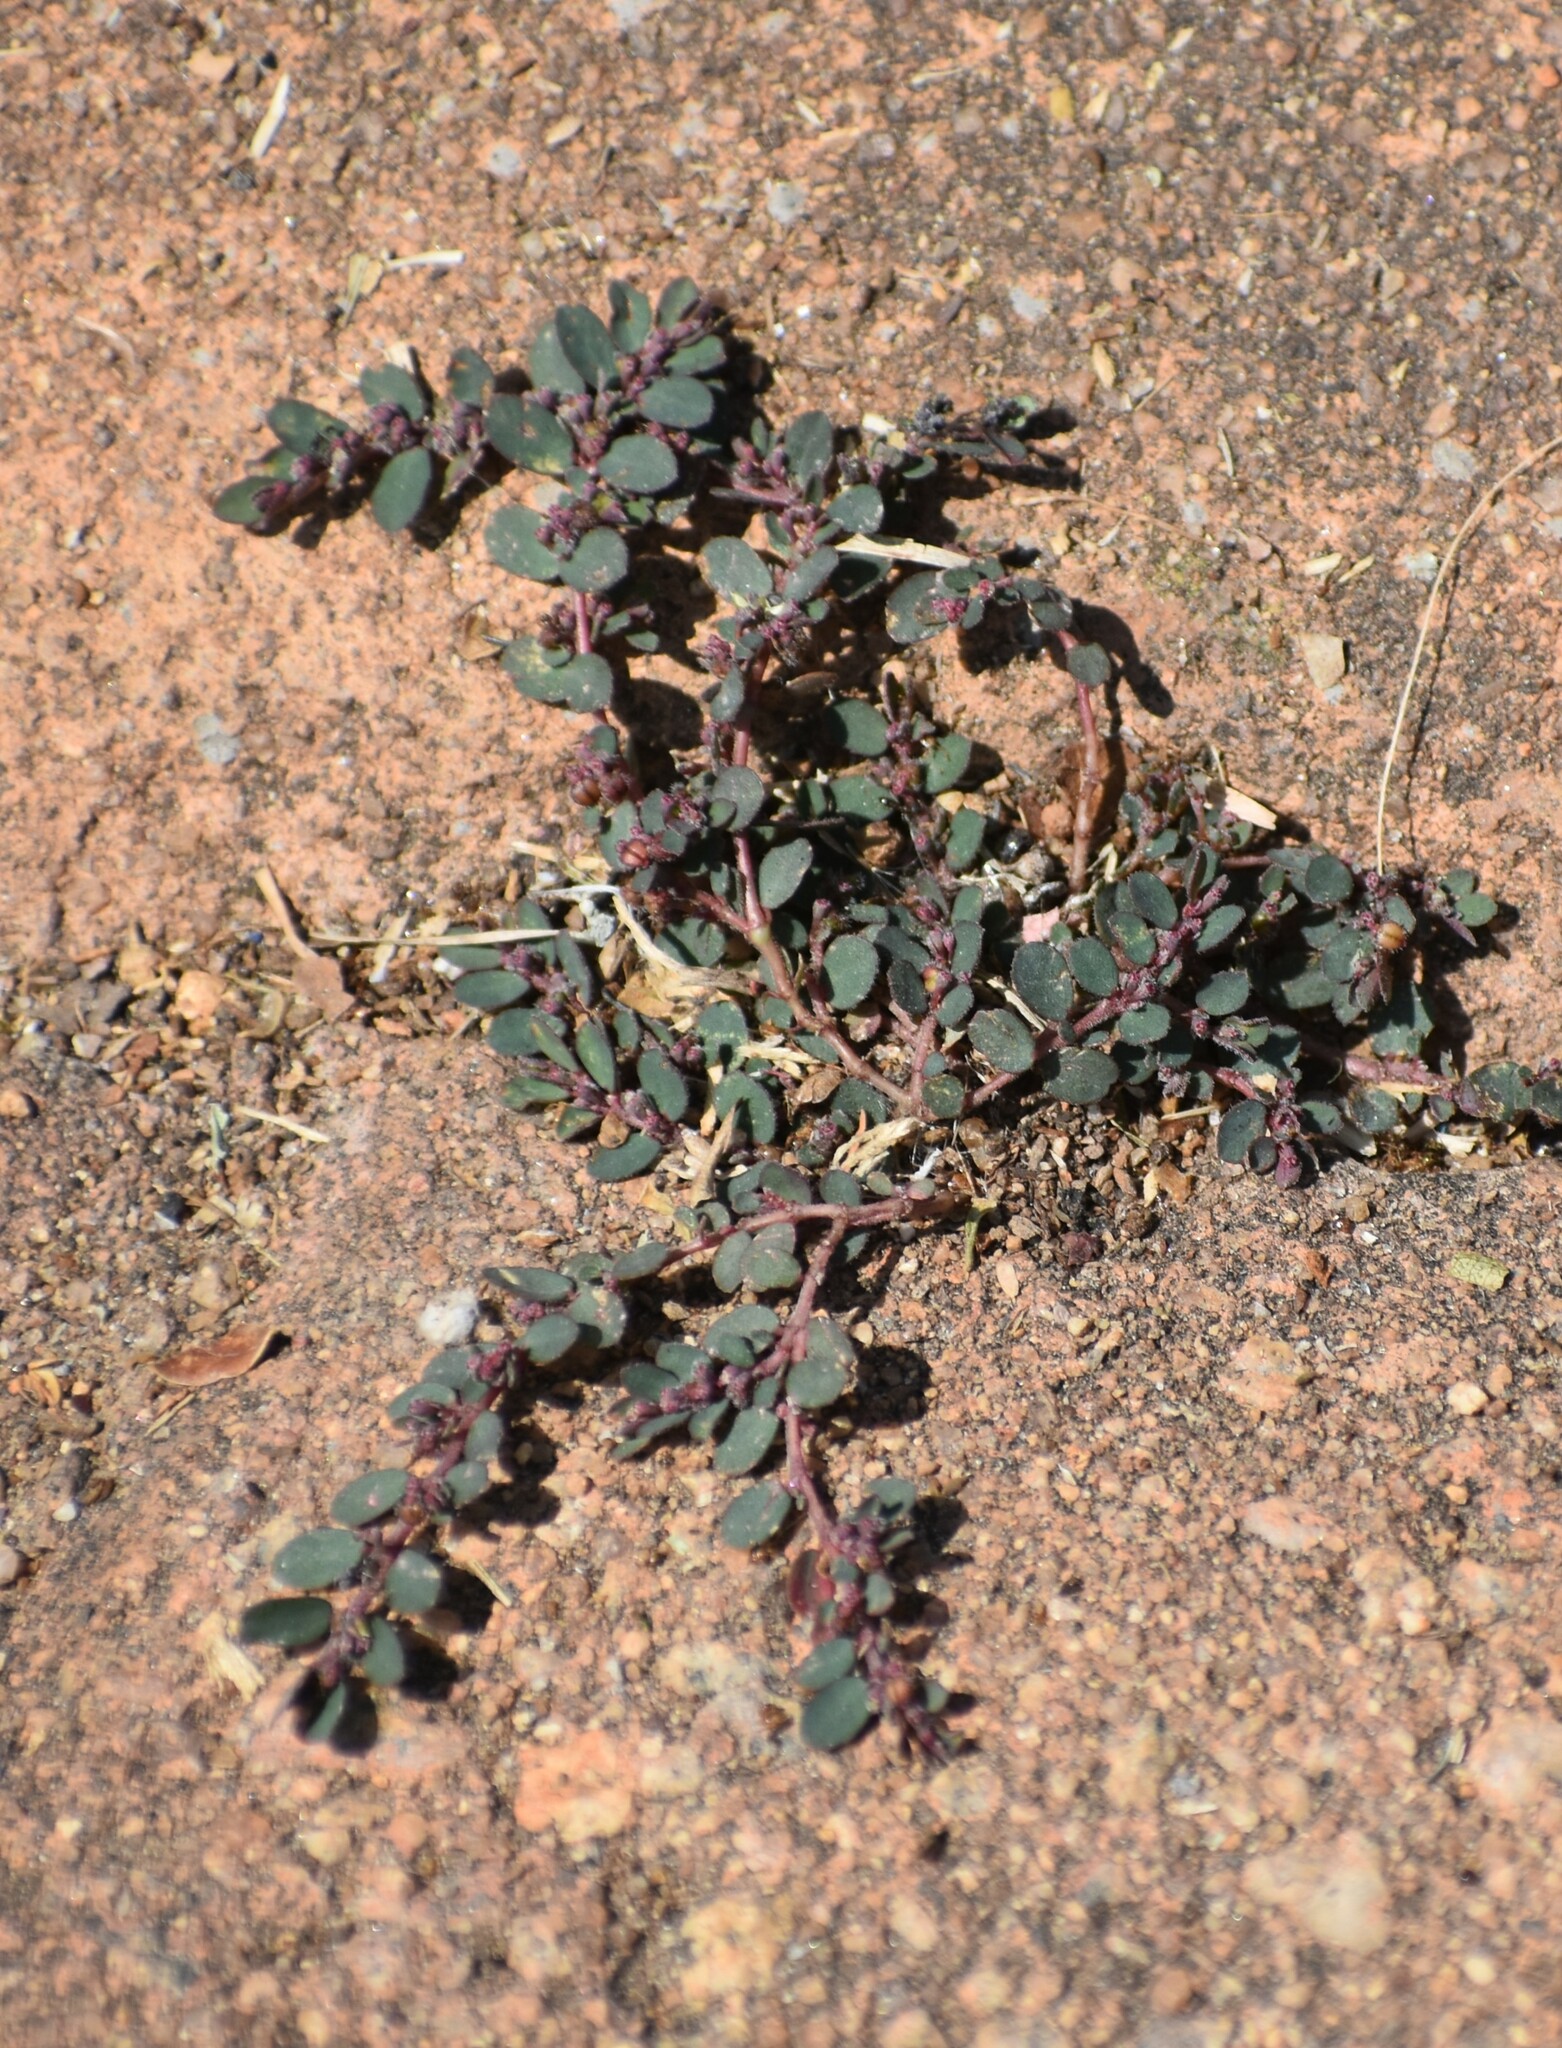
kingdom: Plantae
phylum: Tracheophyta
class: Magnoliopsida
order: Malpighiales
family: Euphorbiaceae
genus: Euphorbia
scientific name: Euphorbia prostrata
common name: Prostrate sandmat
